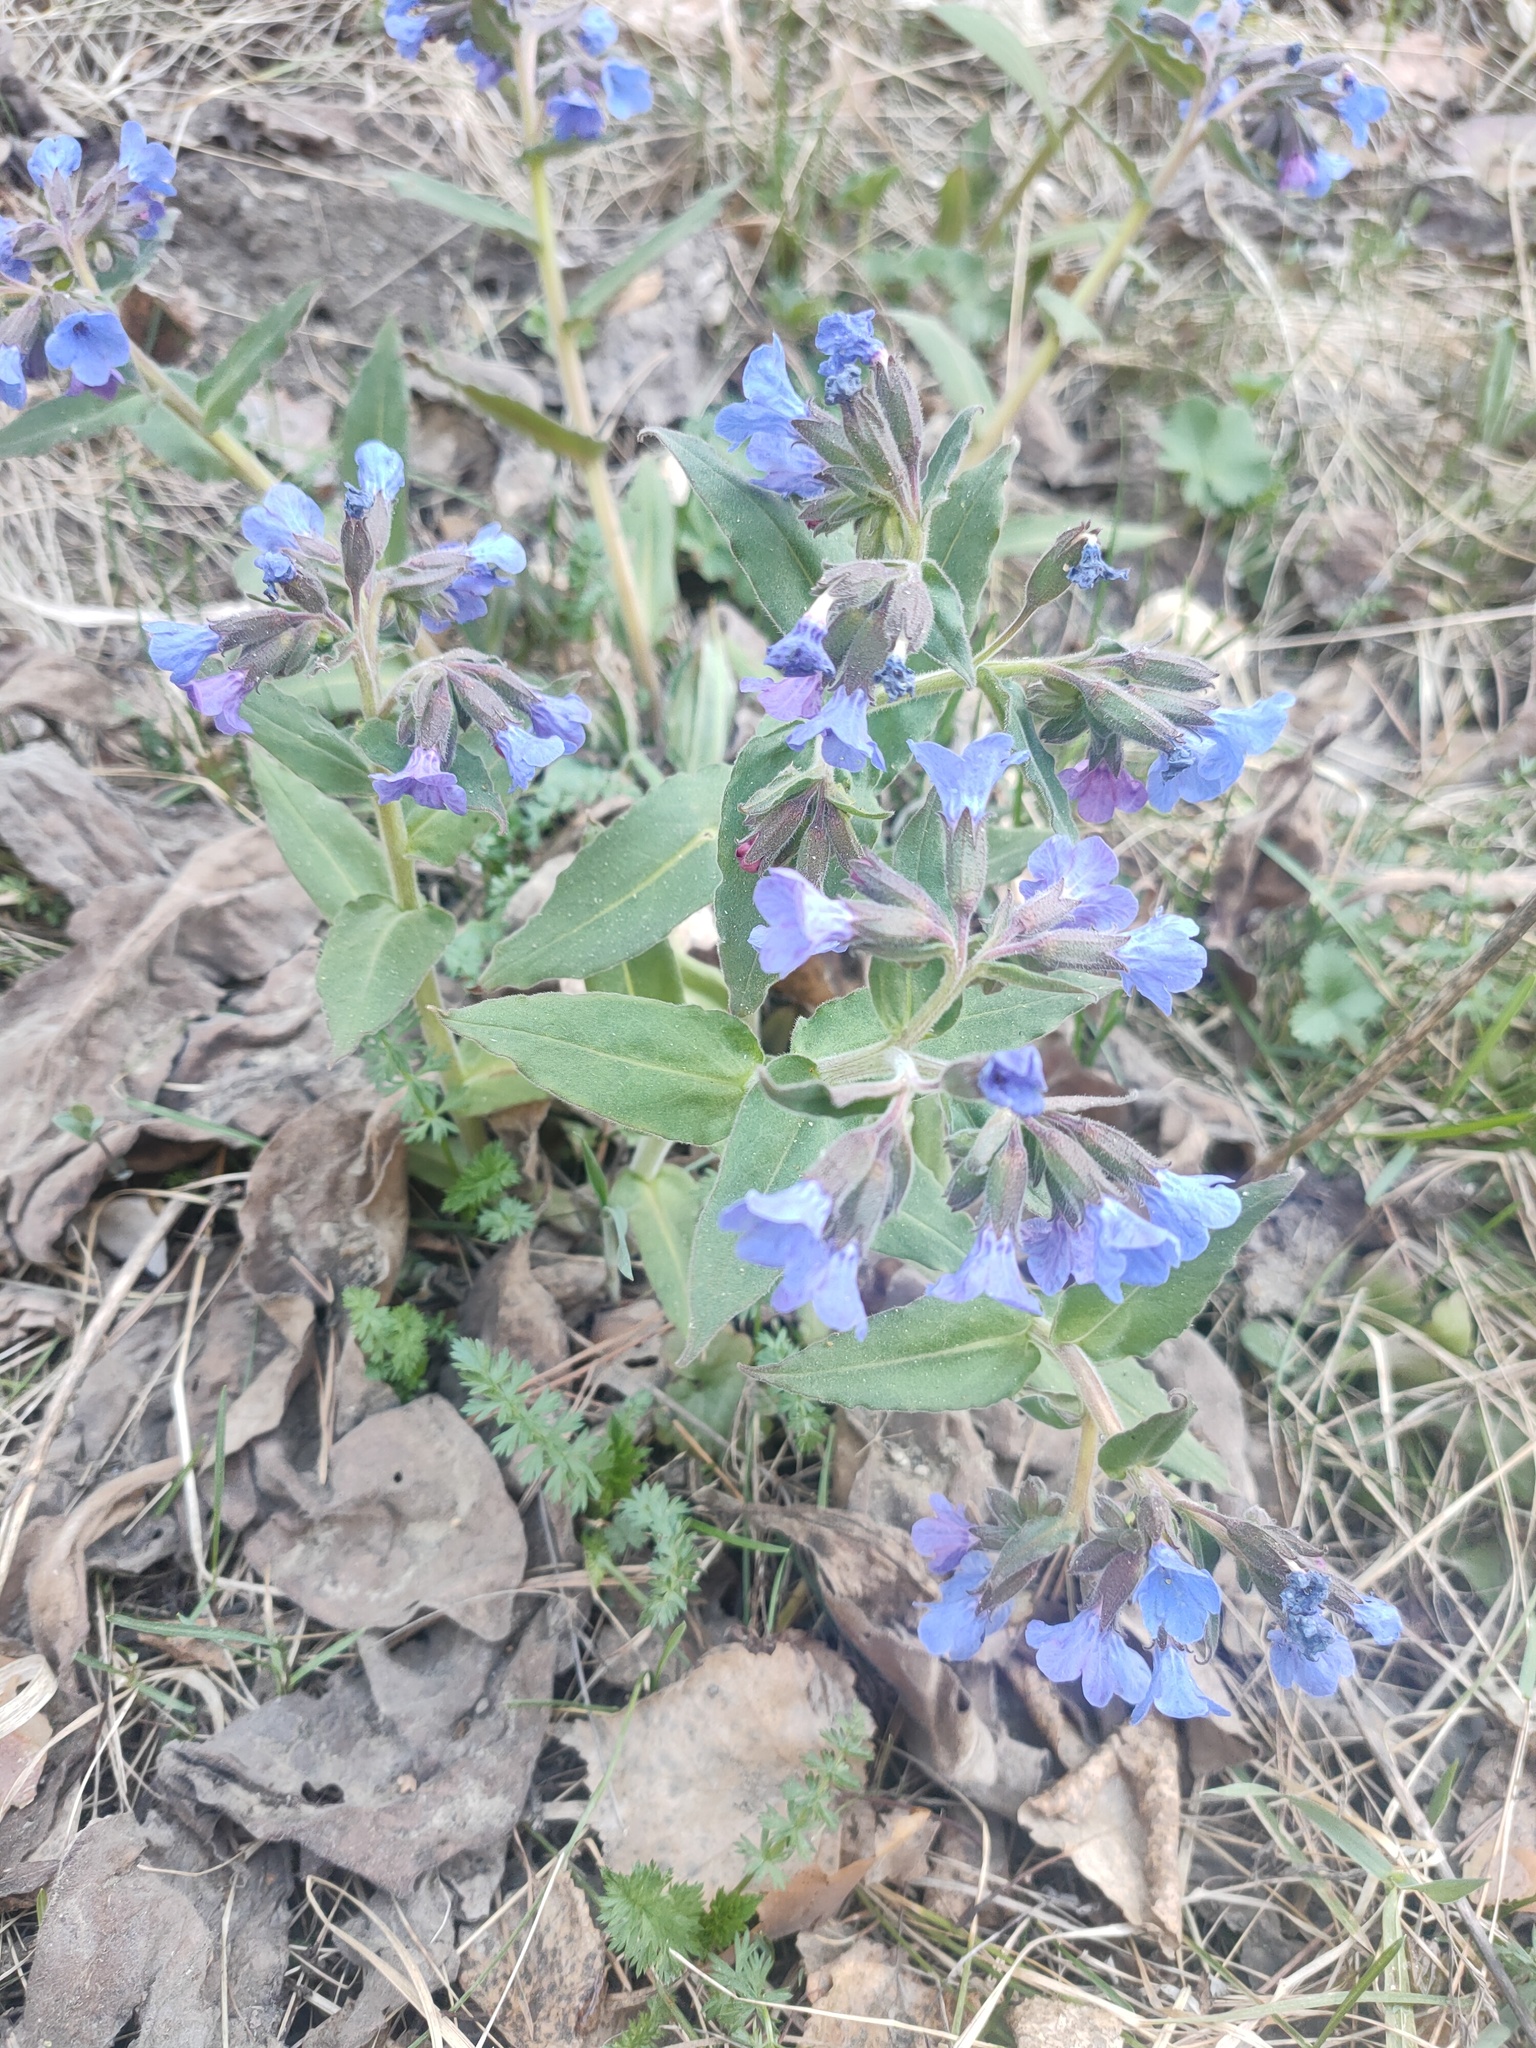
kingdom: Plantae
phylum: Tracheophyta
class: Magnoliopsida
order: Boraginales
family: Boraginaceae
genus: Pulmonaria
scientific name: Pulmonaria mollis
